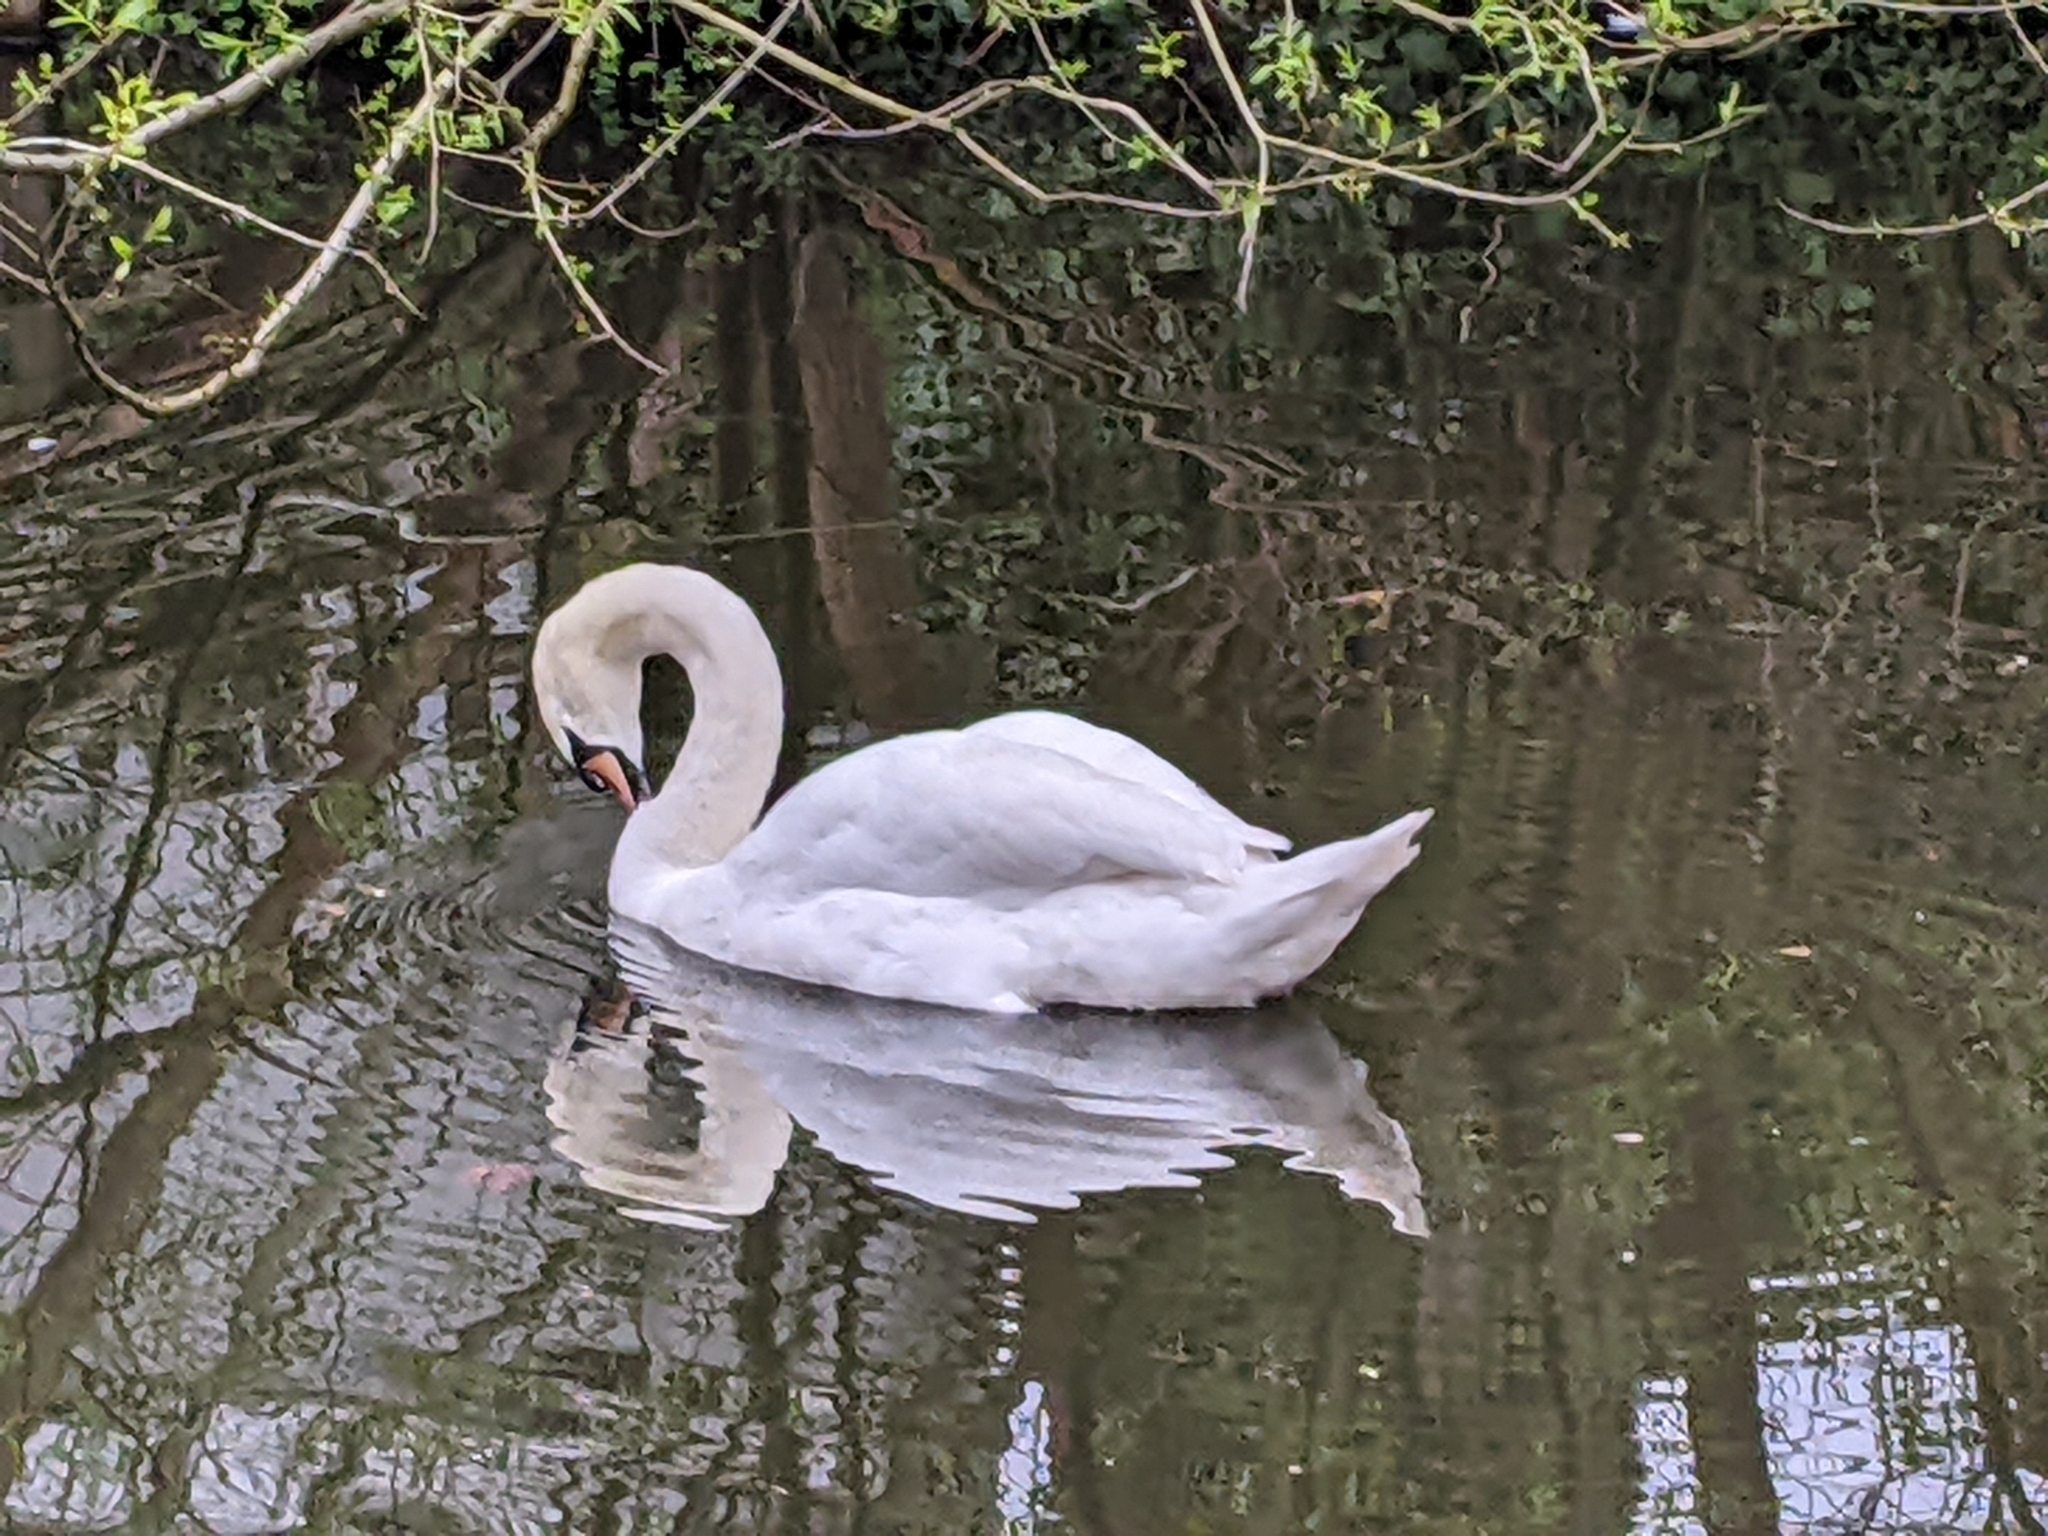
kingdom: Animalia
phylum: Chordata
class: Aves
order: Anseriformes
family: Anatidae
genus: Cygnus
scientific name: Cygnus olor
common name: Mute swan
